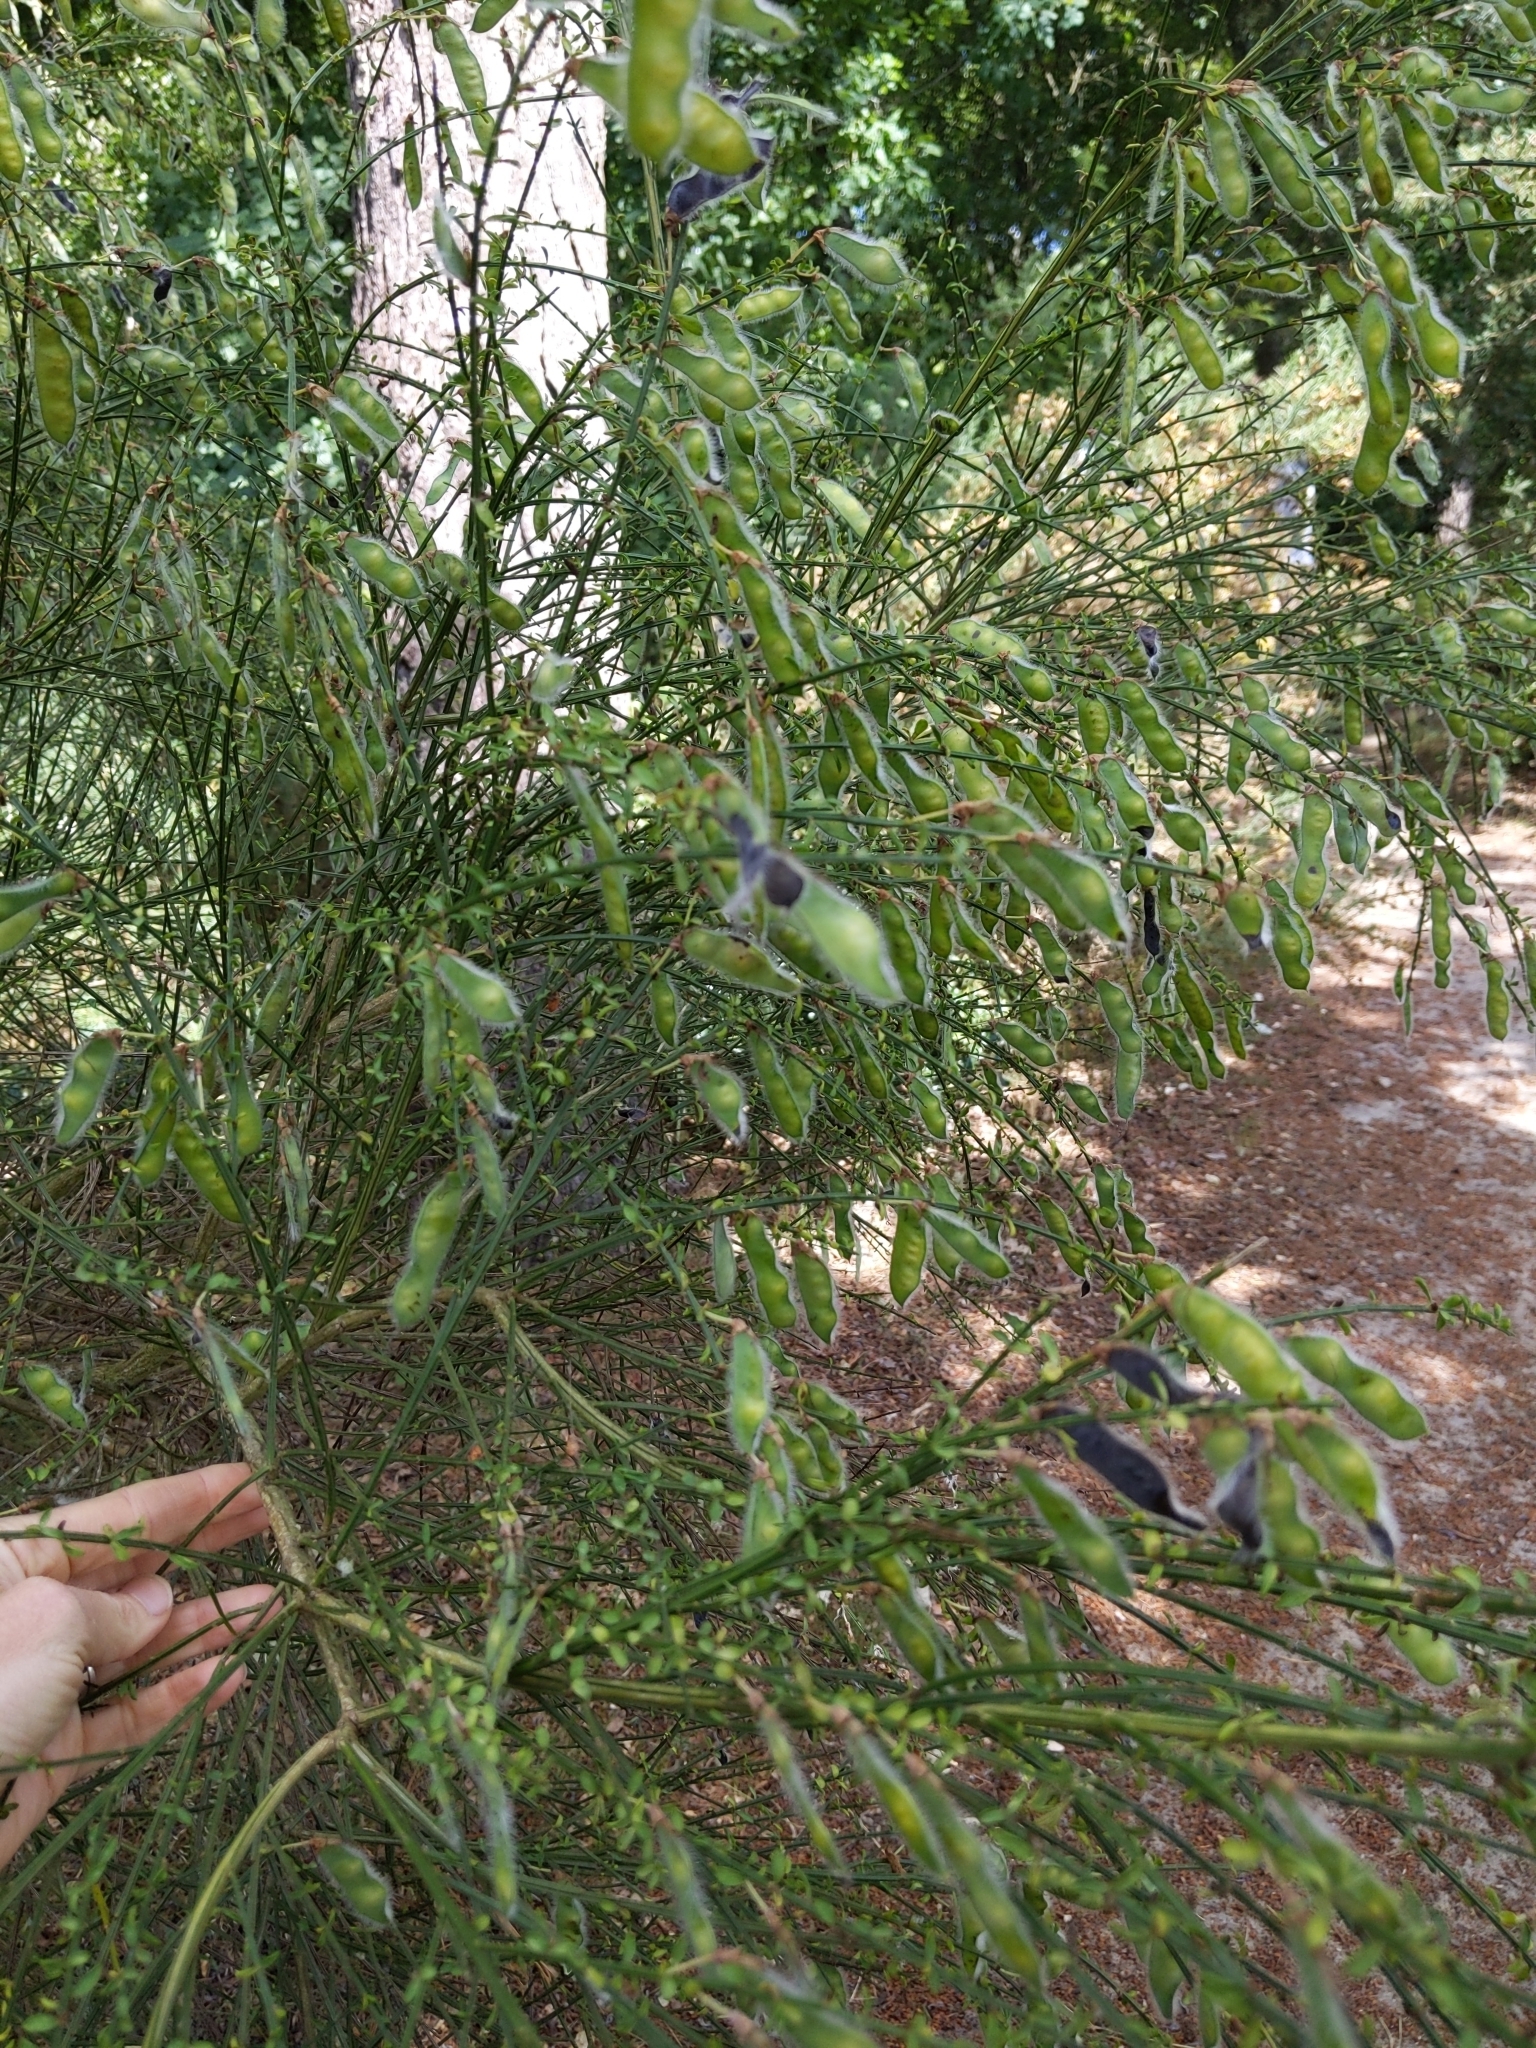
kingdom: Plantae
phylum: Tracheophyta
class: Magnoliopsida
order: Fabales
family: Fabaceae
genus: Cytisus
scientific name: Cytisus scoparius
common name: Scotch broom
